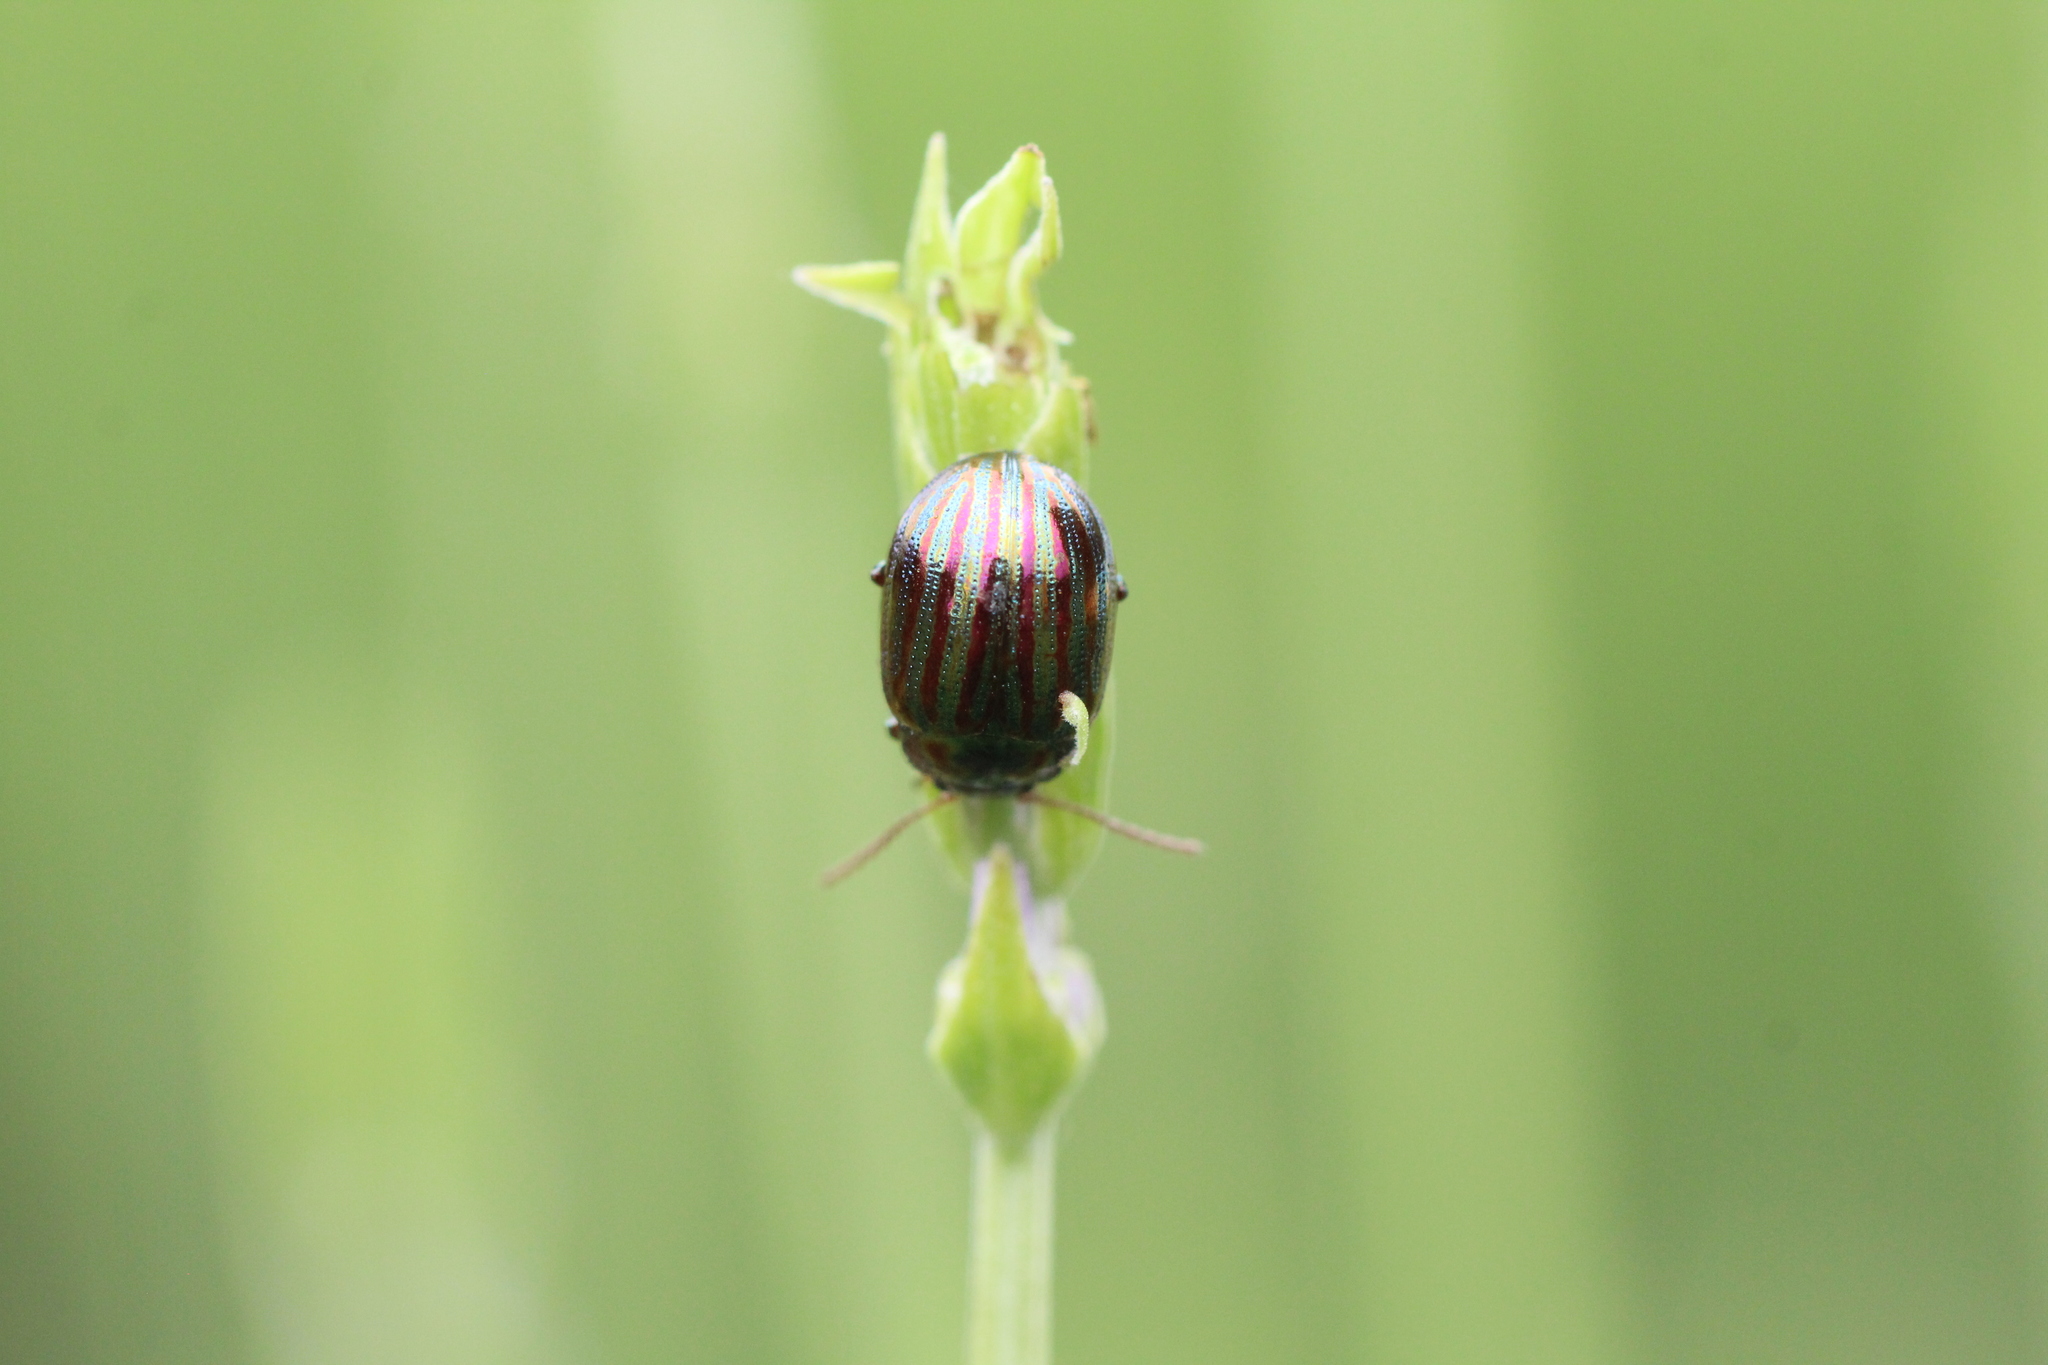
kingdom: Animalia
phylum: Arthropoda
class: Insecta
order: Coleoptera
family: Chrysomelidae
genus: Chrysolina
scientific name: Chrysolina americana
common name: Rosemary beetle
